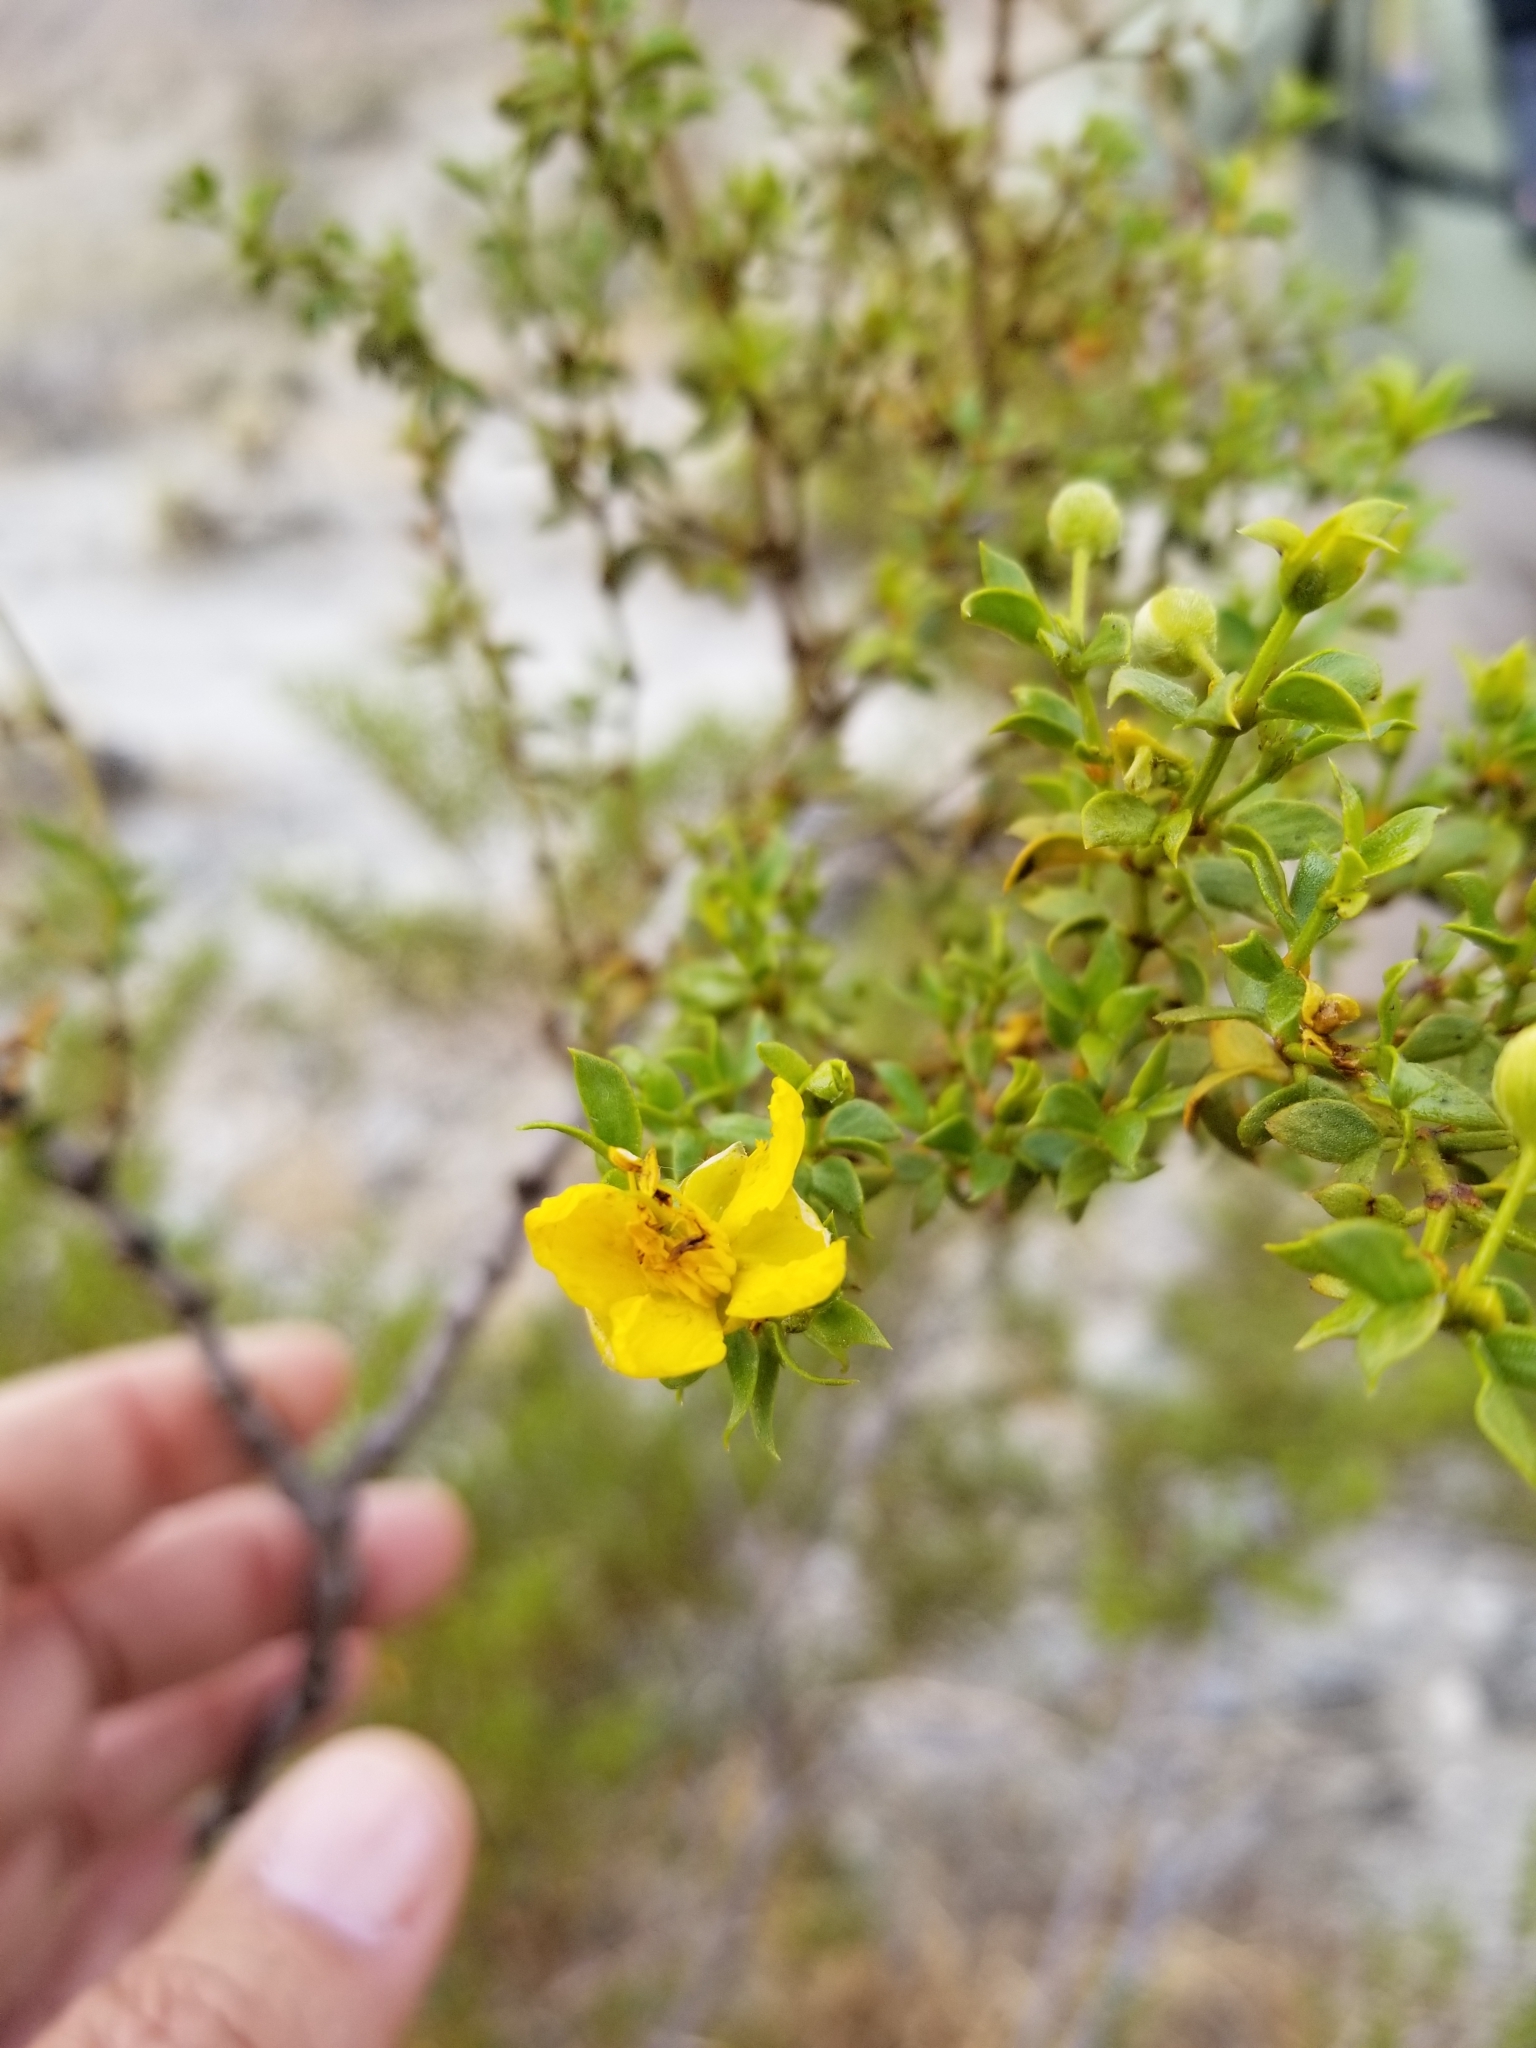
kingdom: Plantae
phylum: Tracheophyta
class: Magnoliopsida
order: Zygophyllales
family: Zygophyllaceae
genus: Larrea
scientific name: Larrea tridentata
